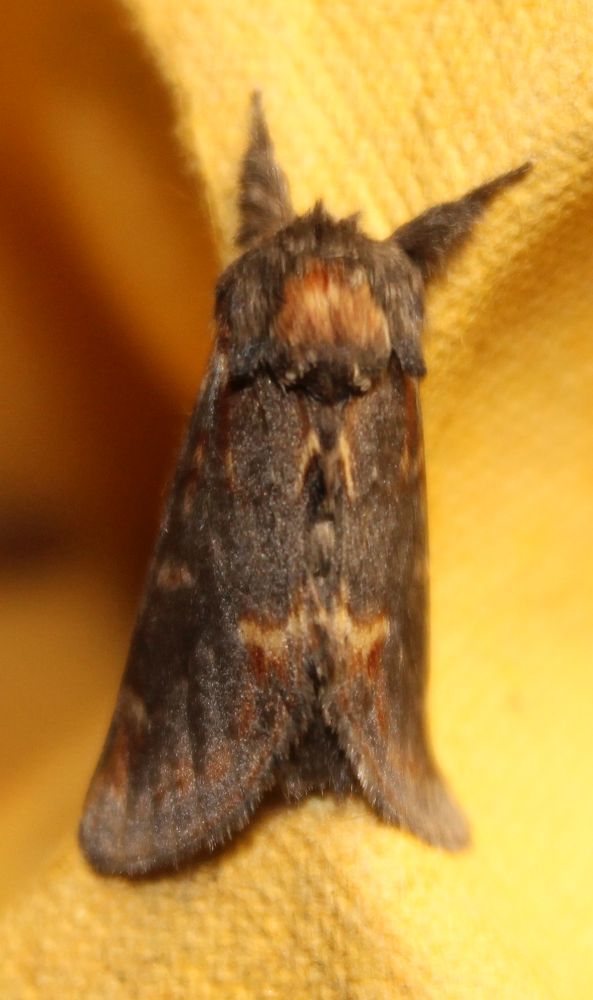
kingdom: Animalia
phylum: Arthropoda
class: Insecta
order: Lepidoptera
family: Notodontidae
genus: Notodonta
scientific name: Notodonta dromedarius
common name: Iron prominent
